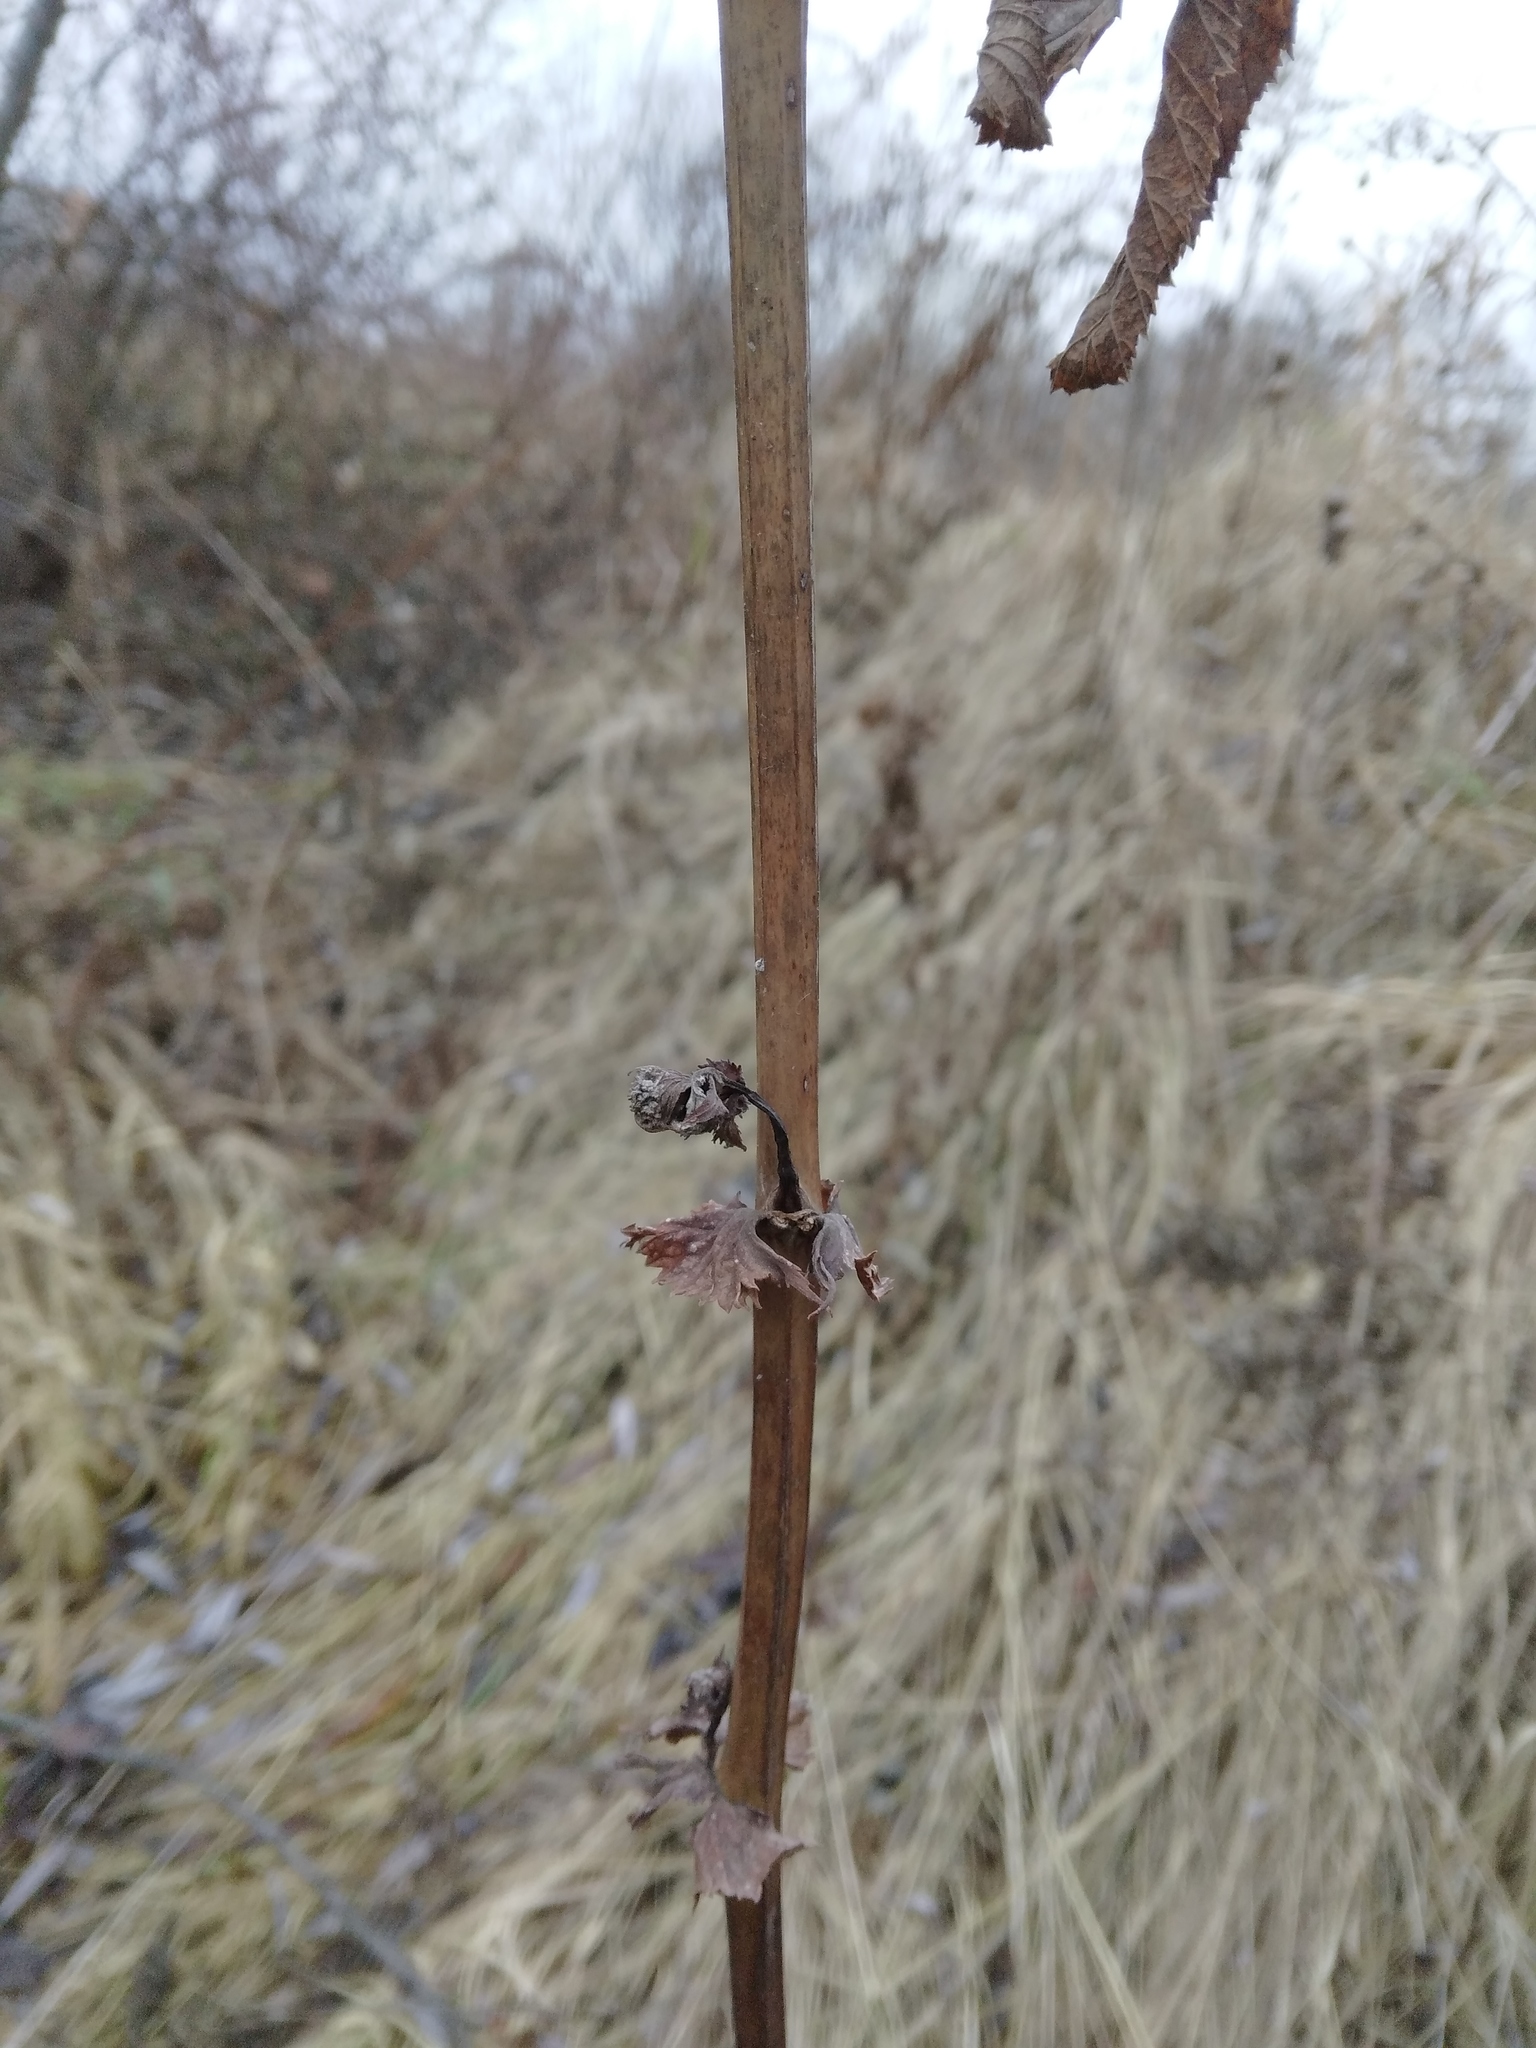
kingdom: Plantae
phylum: Tracheophyta
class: Magnoliopsida
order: Rosales
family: Rosaceae
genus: Filipendula
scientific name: Filipendula ulmaria
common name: Meadowsweet
